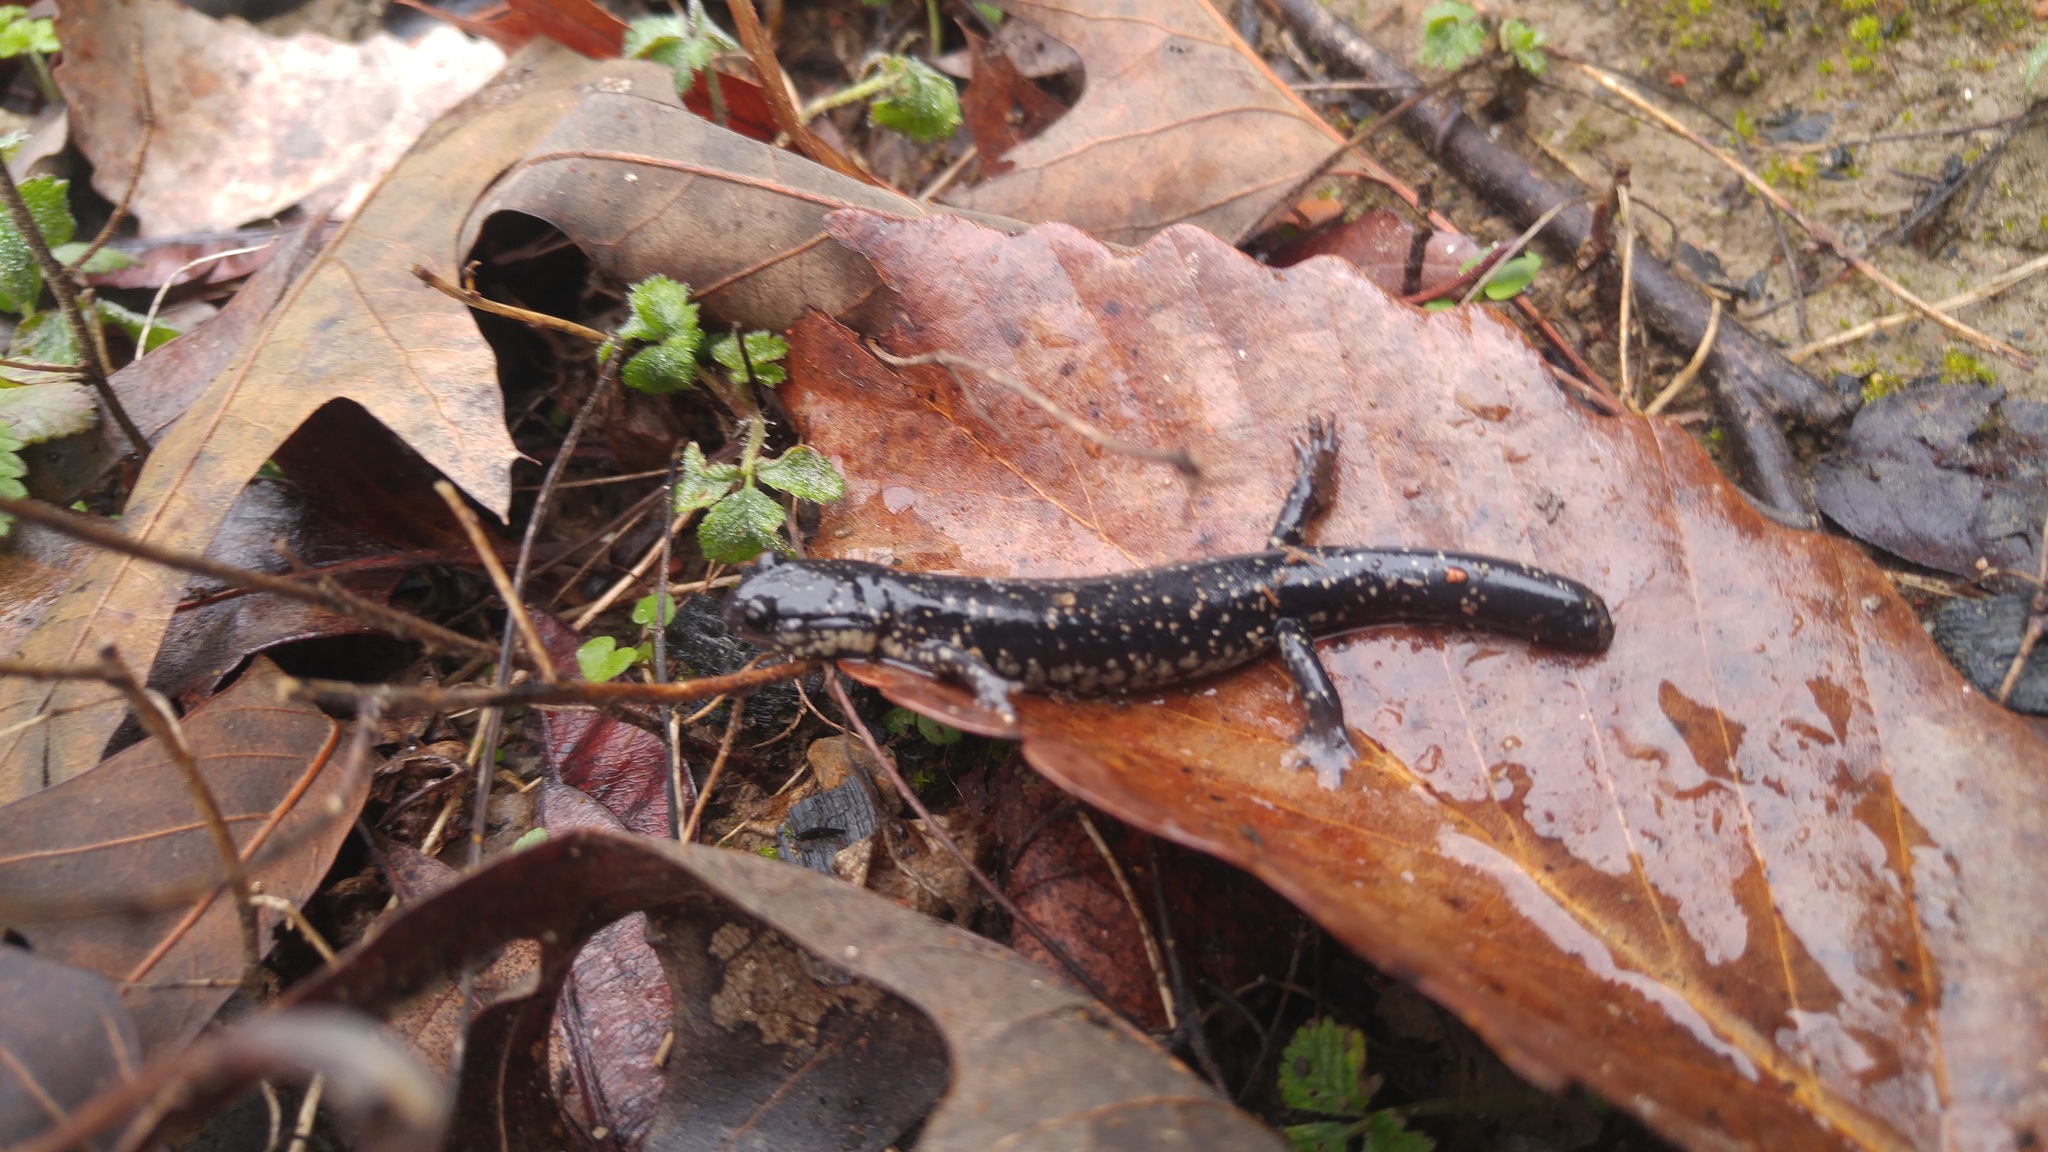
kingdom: Animalia
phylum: Chordata
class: Amphibia
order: Caudata
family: Plethodontidae
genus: Plethodon
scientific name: Plethodon mississippi
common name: Mississippi slimy salamander
